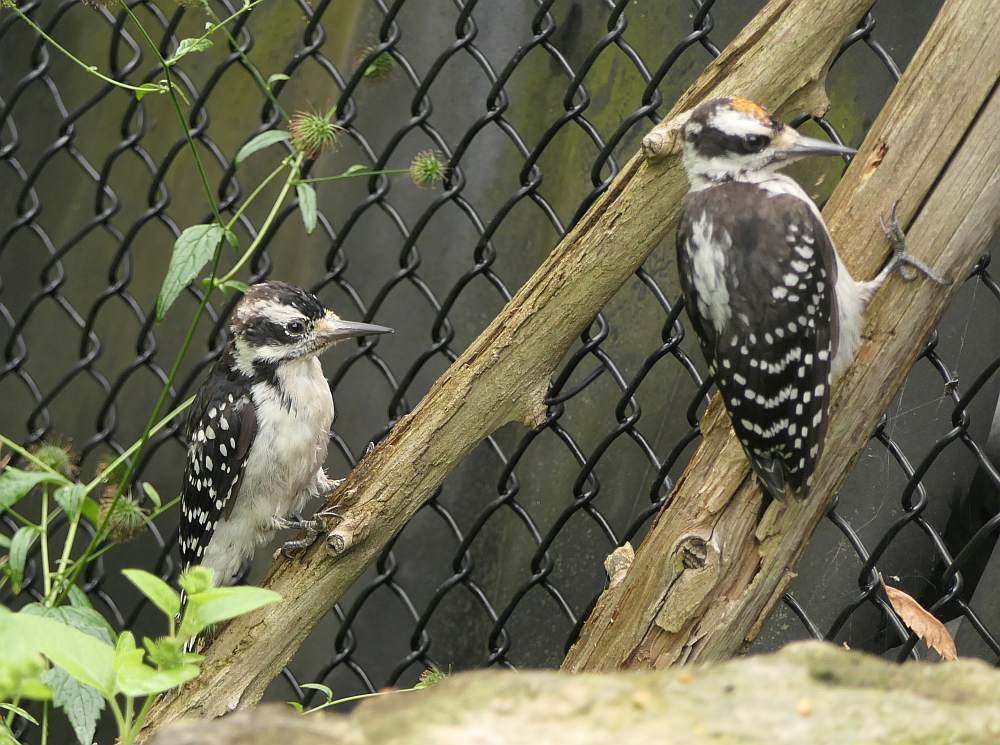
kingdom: Animalia
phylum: Chordata
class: Aves
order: Piciformes
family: Picidae
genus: Leuconotopicus
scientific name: Leuconotopicus villosus
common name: Hairy woodpecker
